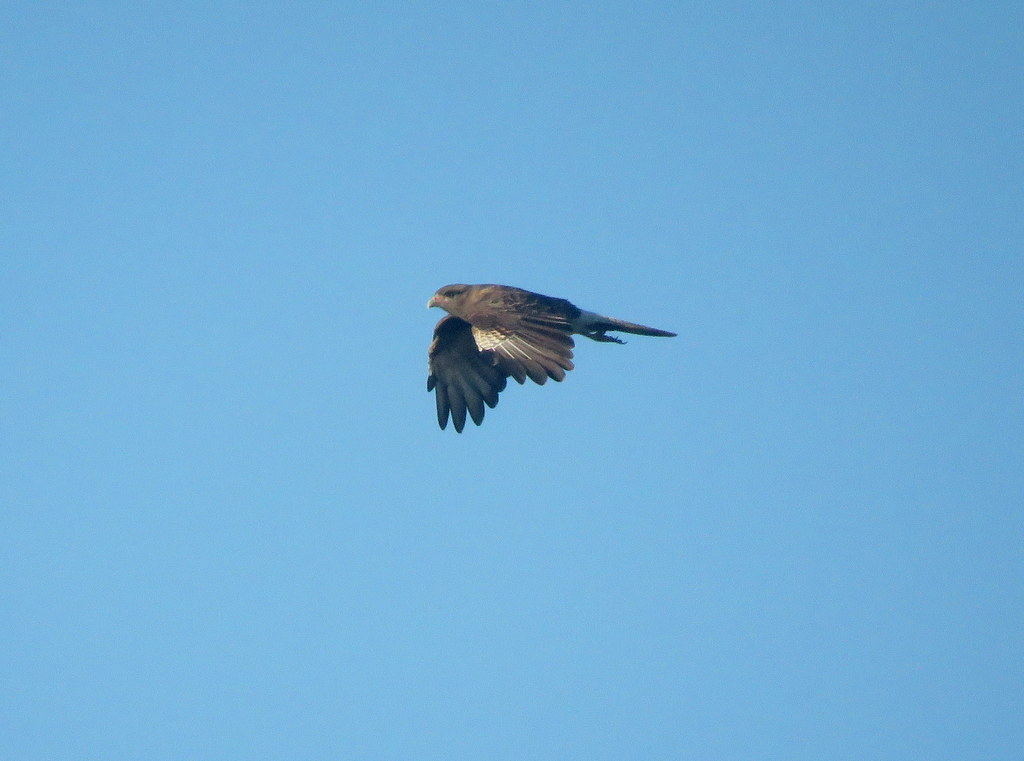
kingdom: Animalia
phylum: Chordata
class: Aves
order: Falconiformes
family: Falconidae
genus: Daptrius
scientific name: Daptrius
